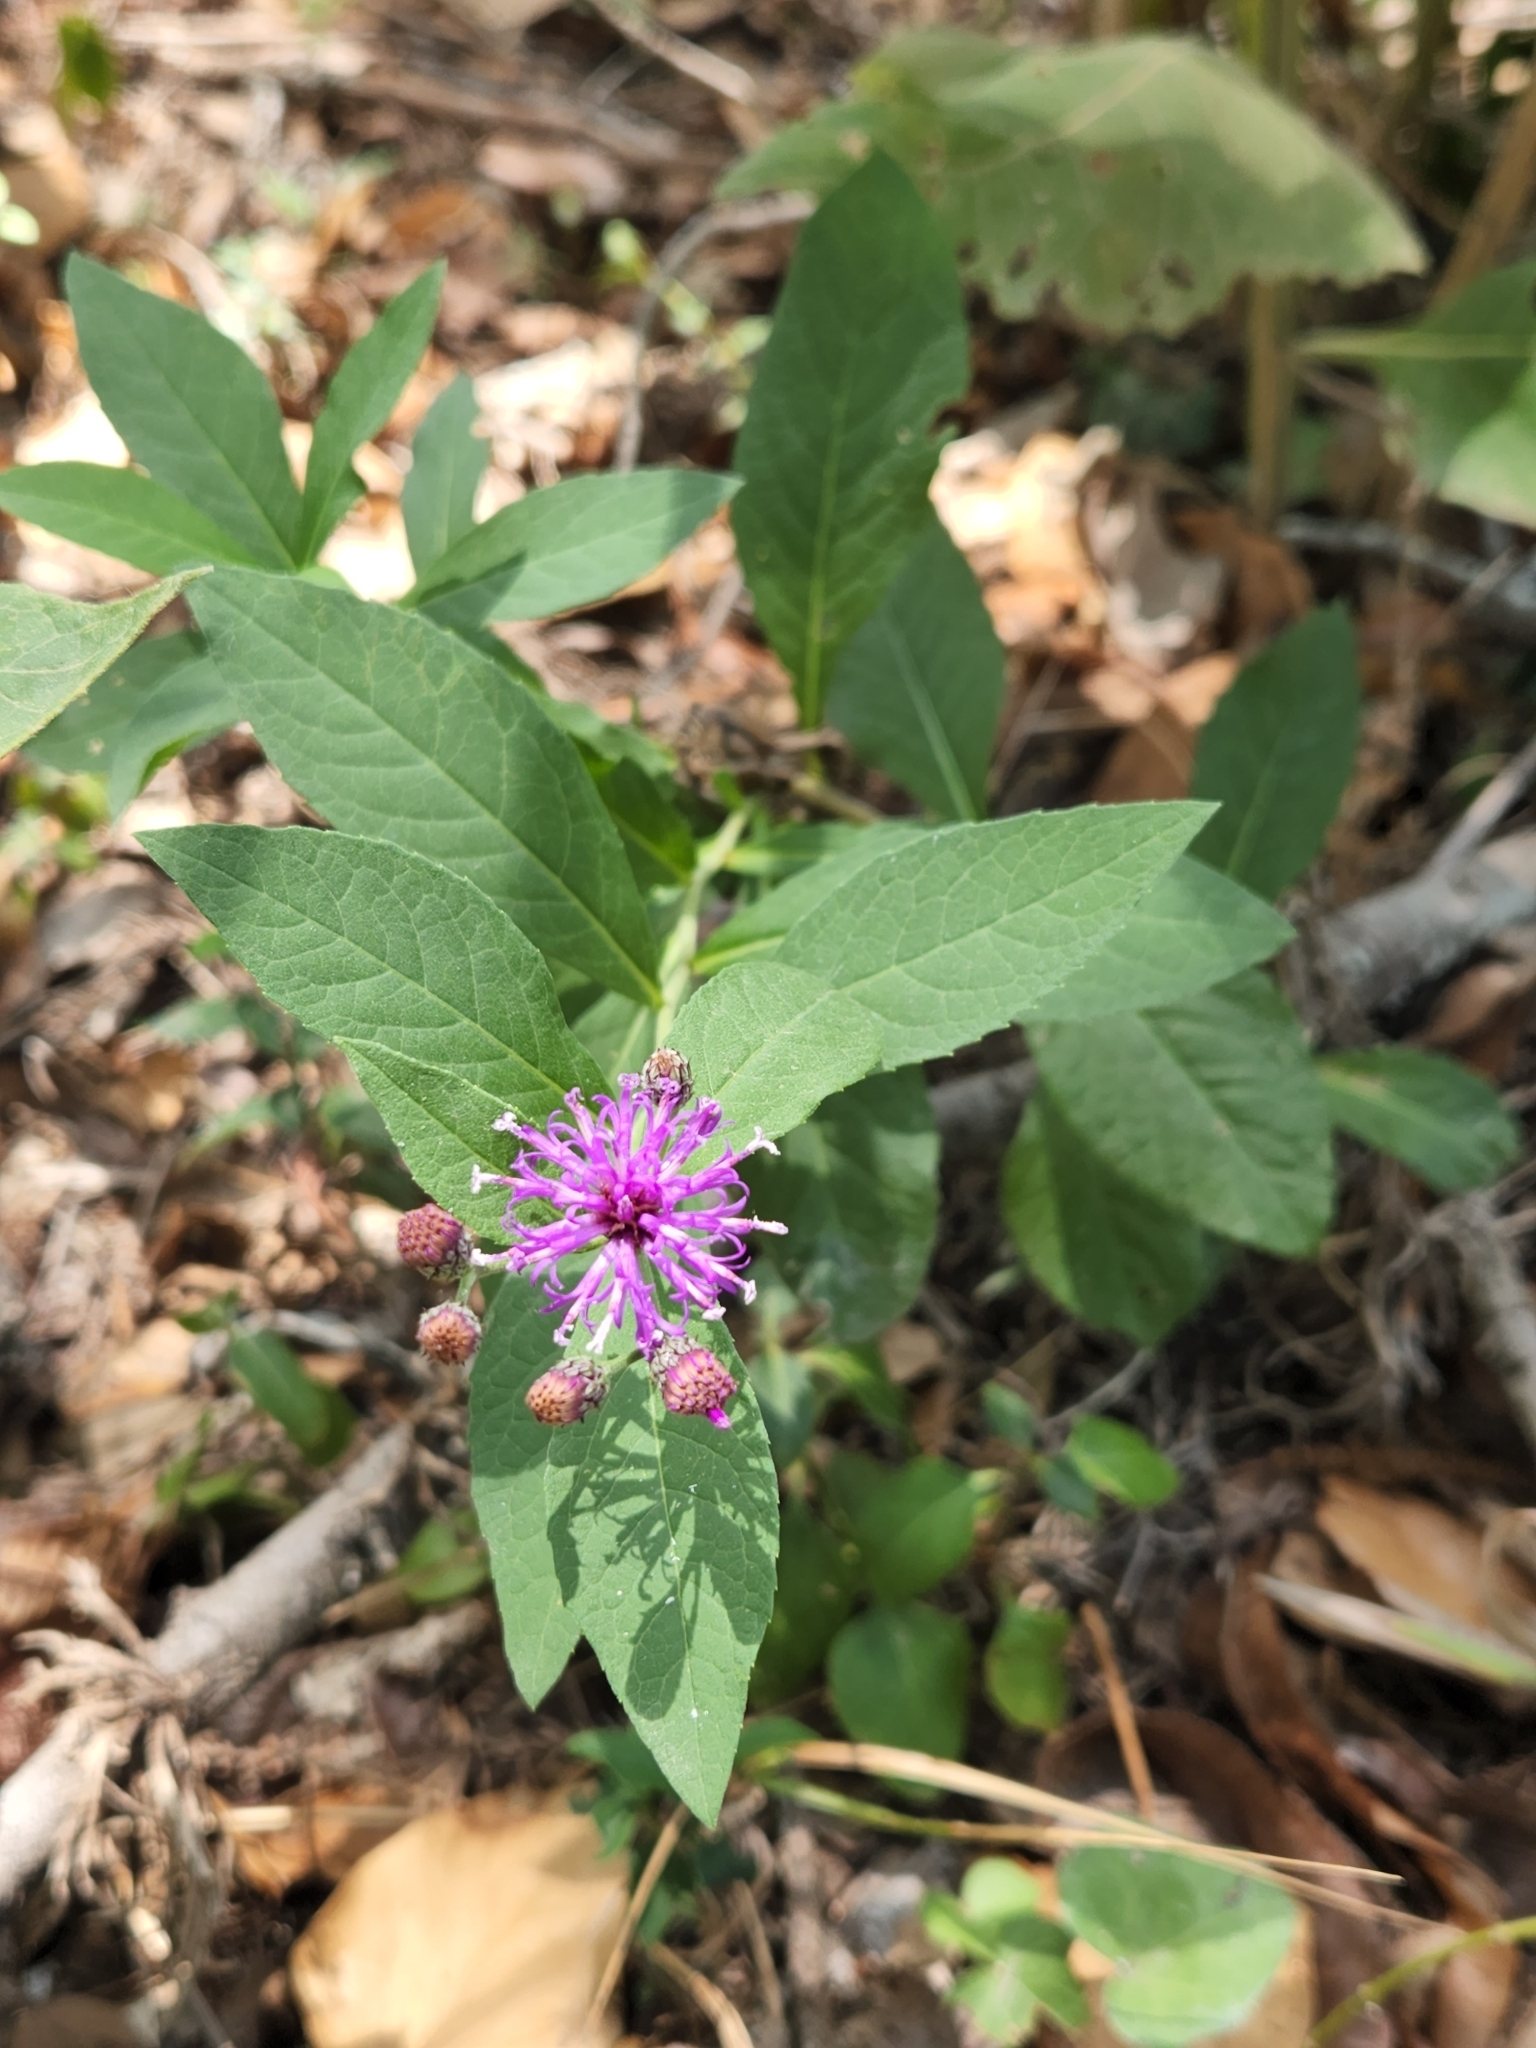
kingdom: Plantae
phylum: Tracheophyta
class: Magnoliopsida
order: Asterales
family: Asteraceae
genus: Vernonia
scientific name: Vernonia baldwinii
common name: Western ironweed
